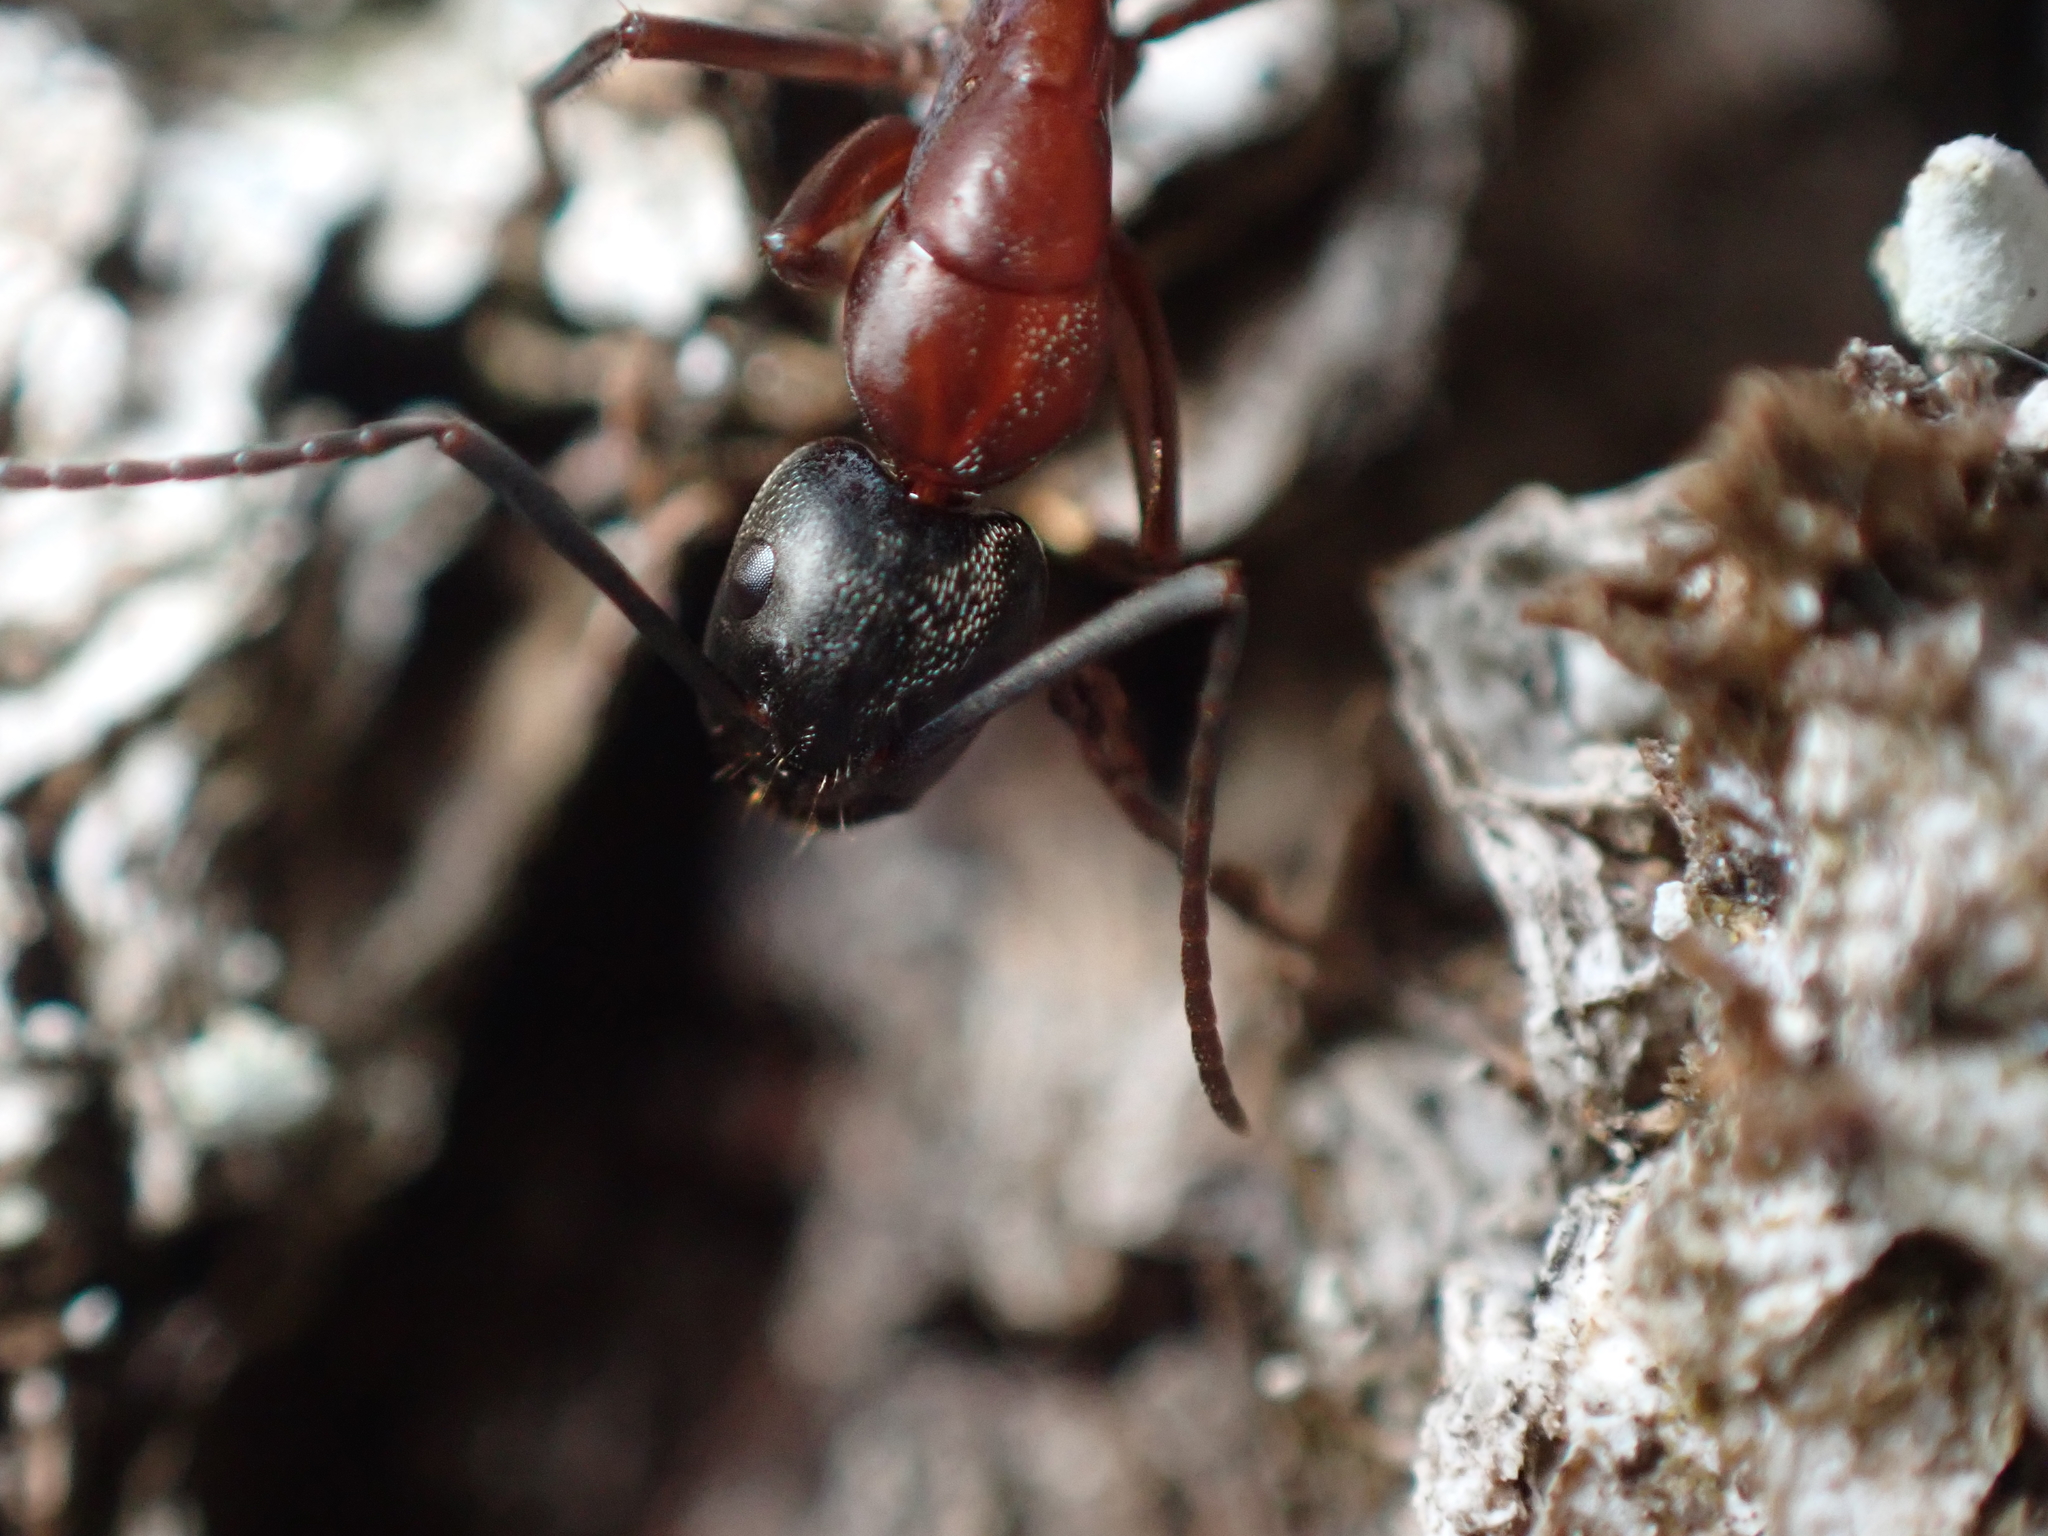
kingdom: Animalia
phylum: Arthropoda
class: Insecta
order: Hymenoptera
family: Formicidae
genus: Camponotus
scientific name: Camponotus vicinus
